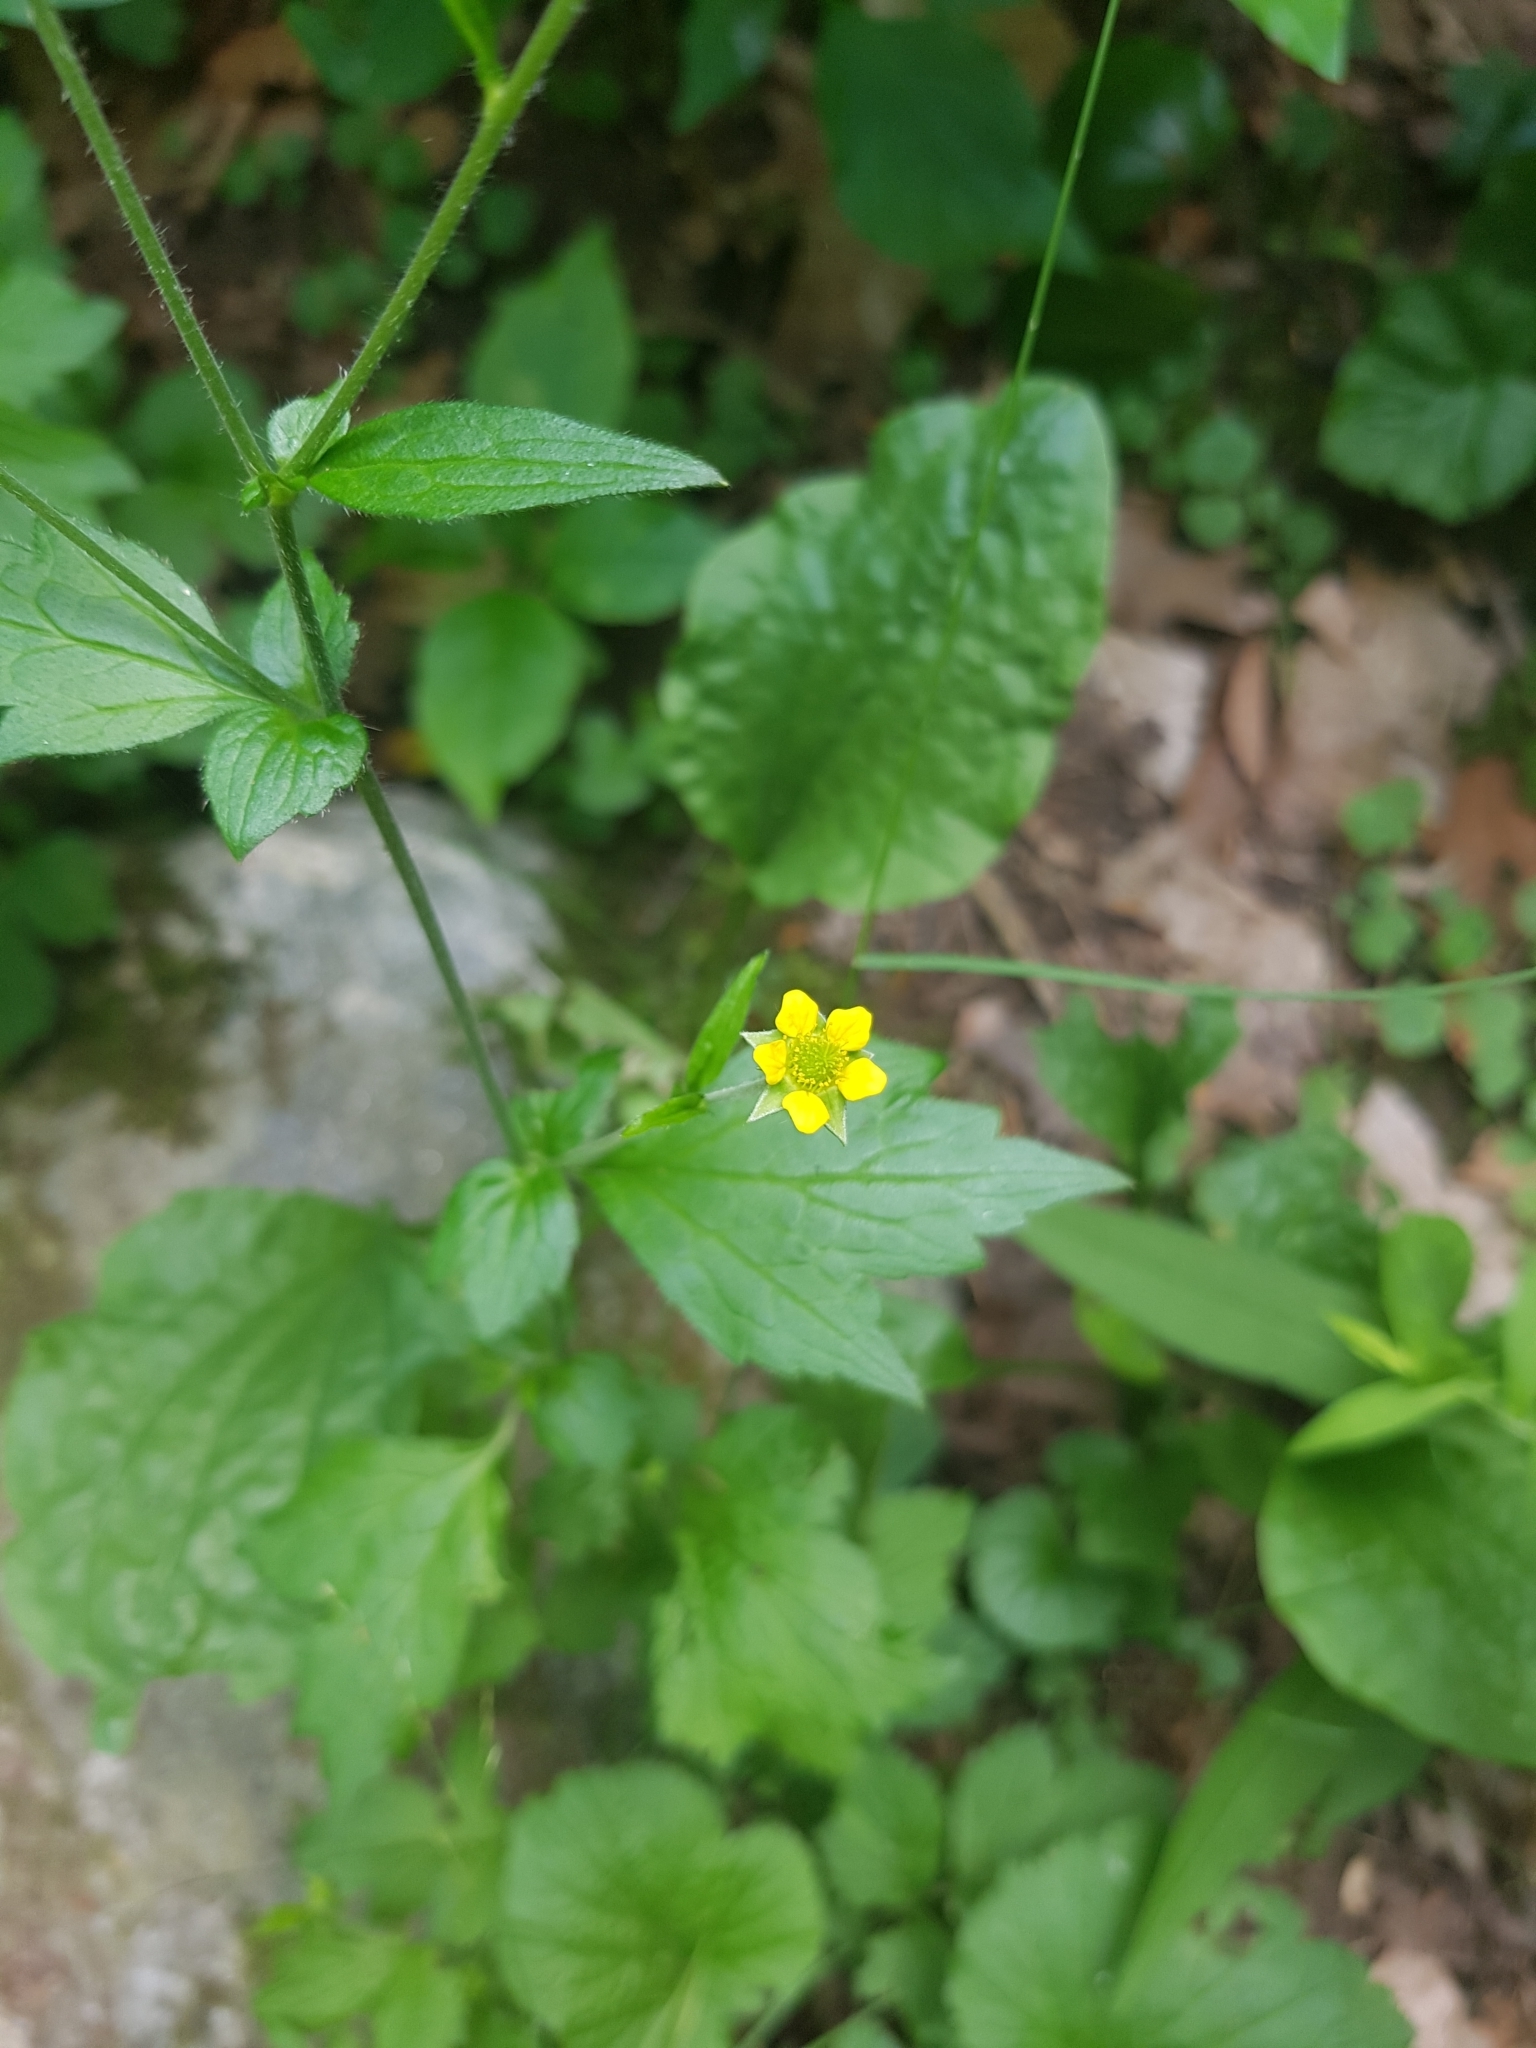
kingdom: Plantae
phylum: Tracheophyta
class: Magnoliopsida
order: Rosales
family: Rosaceae
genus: Geum
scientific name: Geum urbanum
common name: Wood avens
